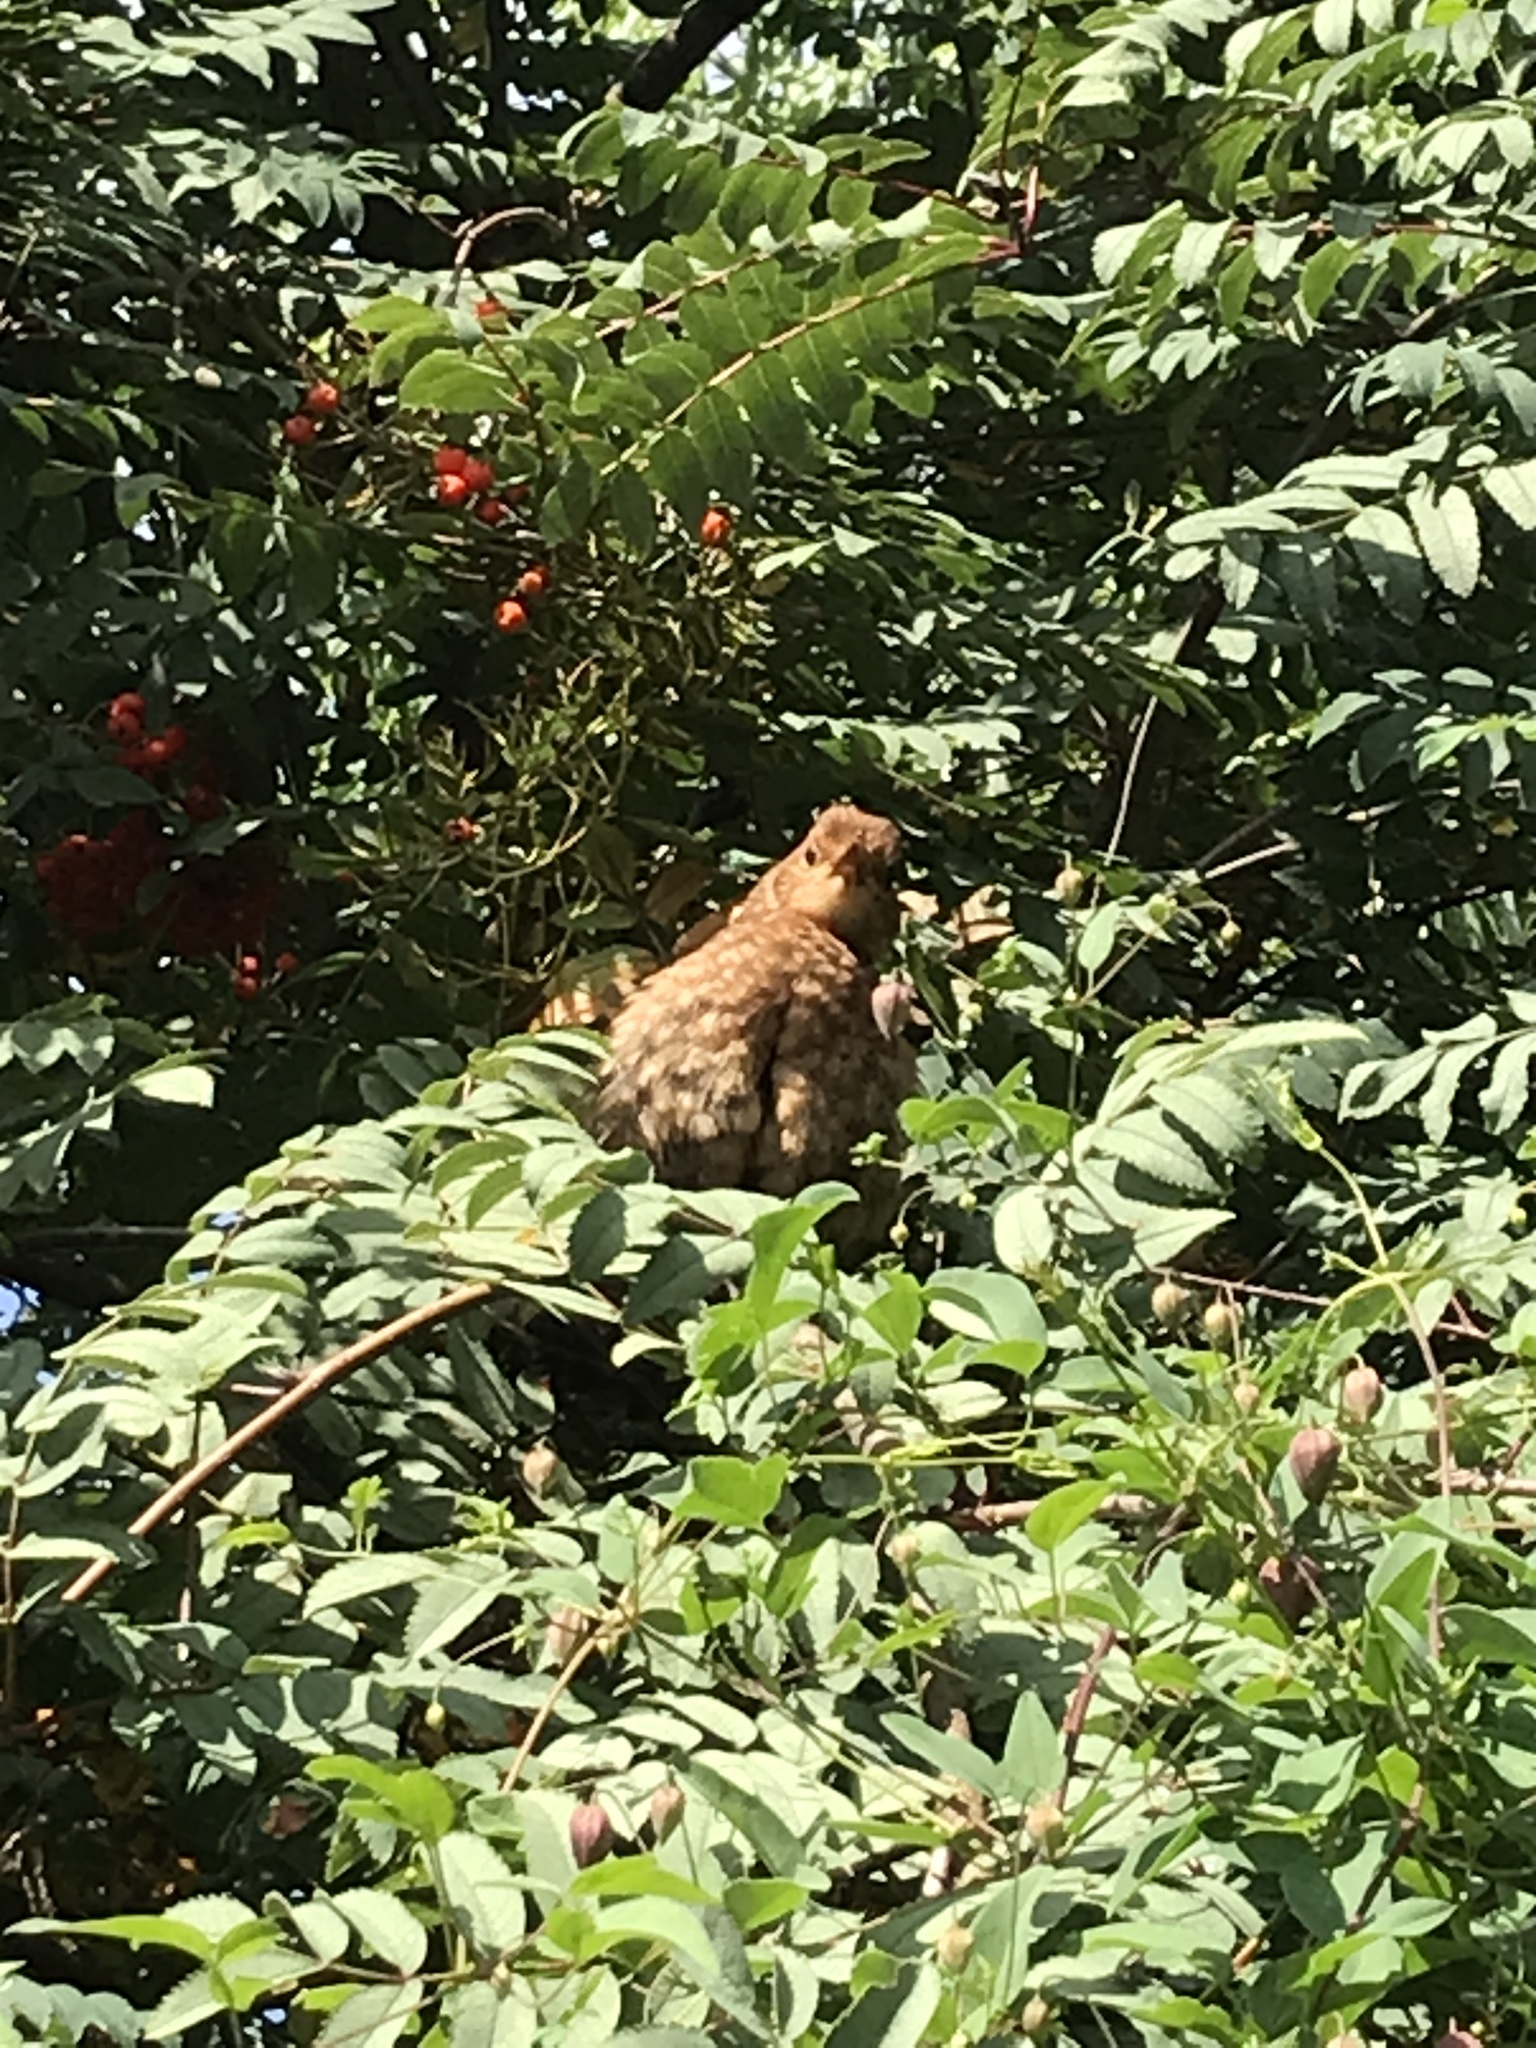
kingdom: Animalia
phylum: Chordata
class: Aves
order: Passeriformes
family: Turdidae
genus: Turdus
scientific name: Turdus merula
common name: Common blackbird
